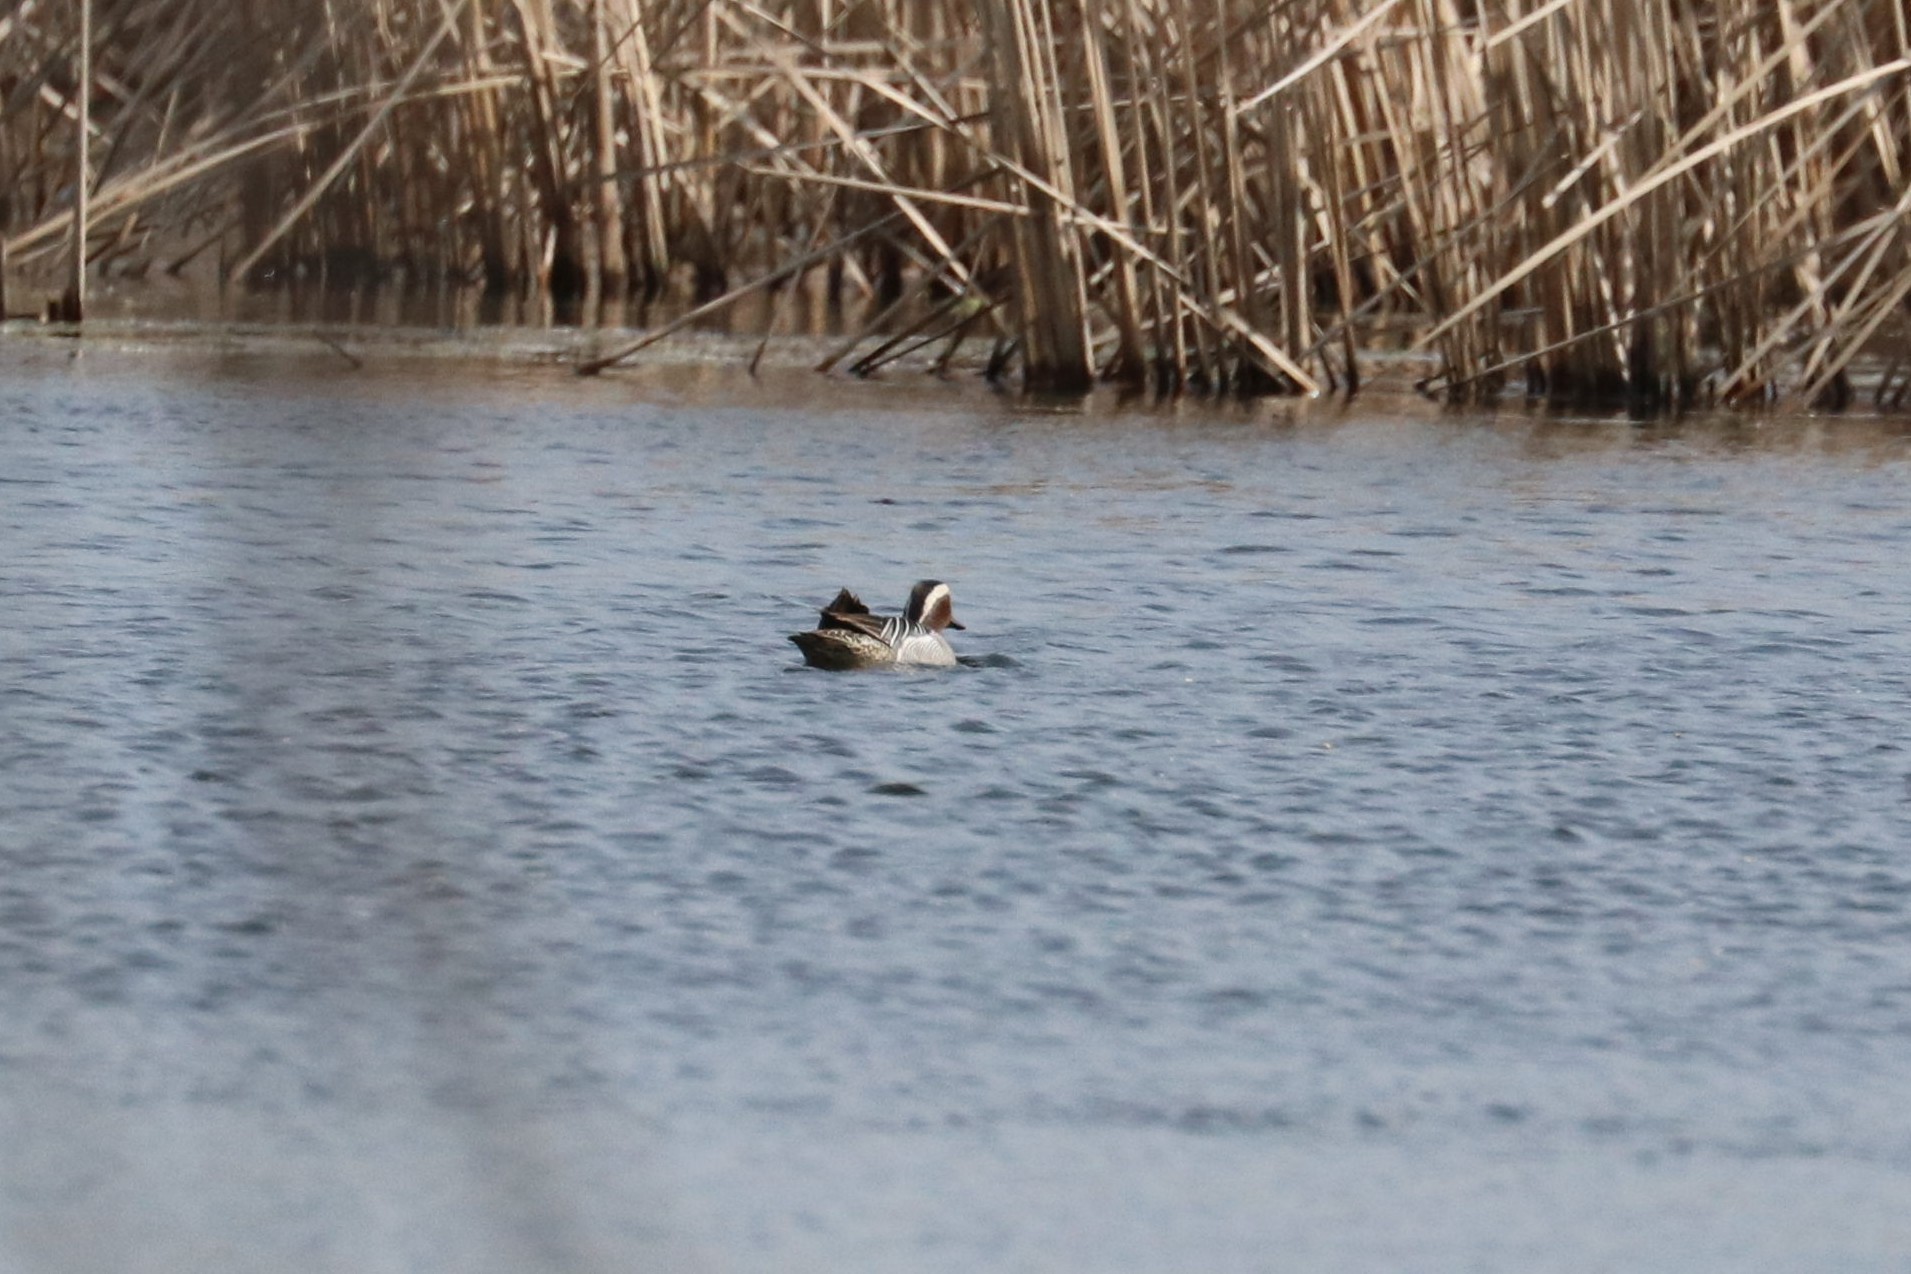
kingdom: Animalia
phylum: Chordata
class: Aves
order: Anseriformes
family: Anatidae
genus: Spatula
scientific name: Spatula querquedula
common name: Garganey
